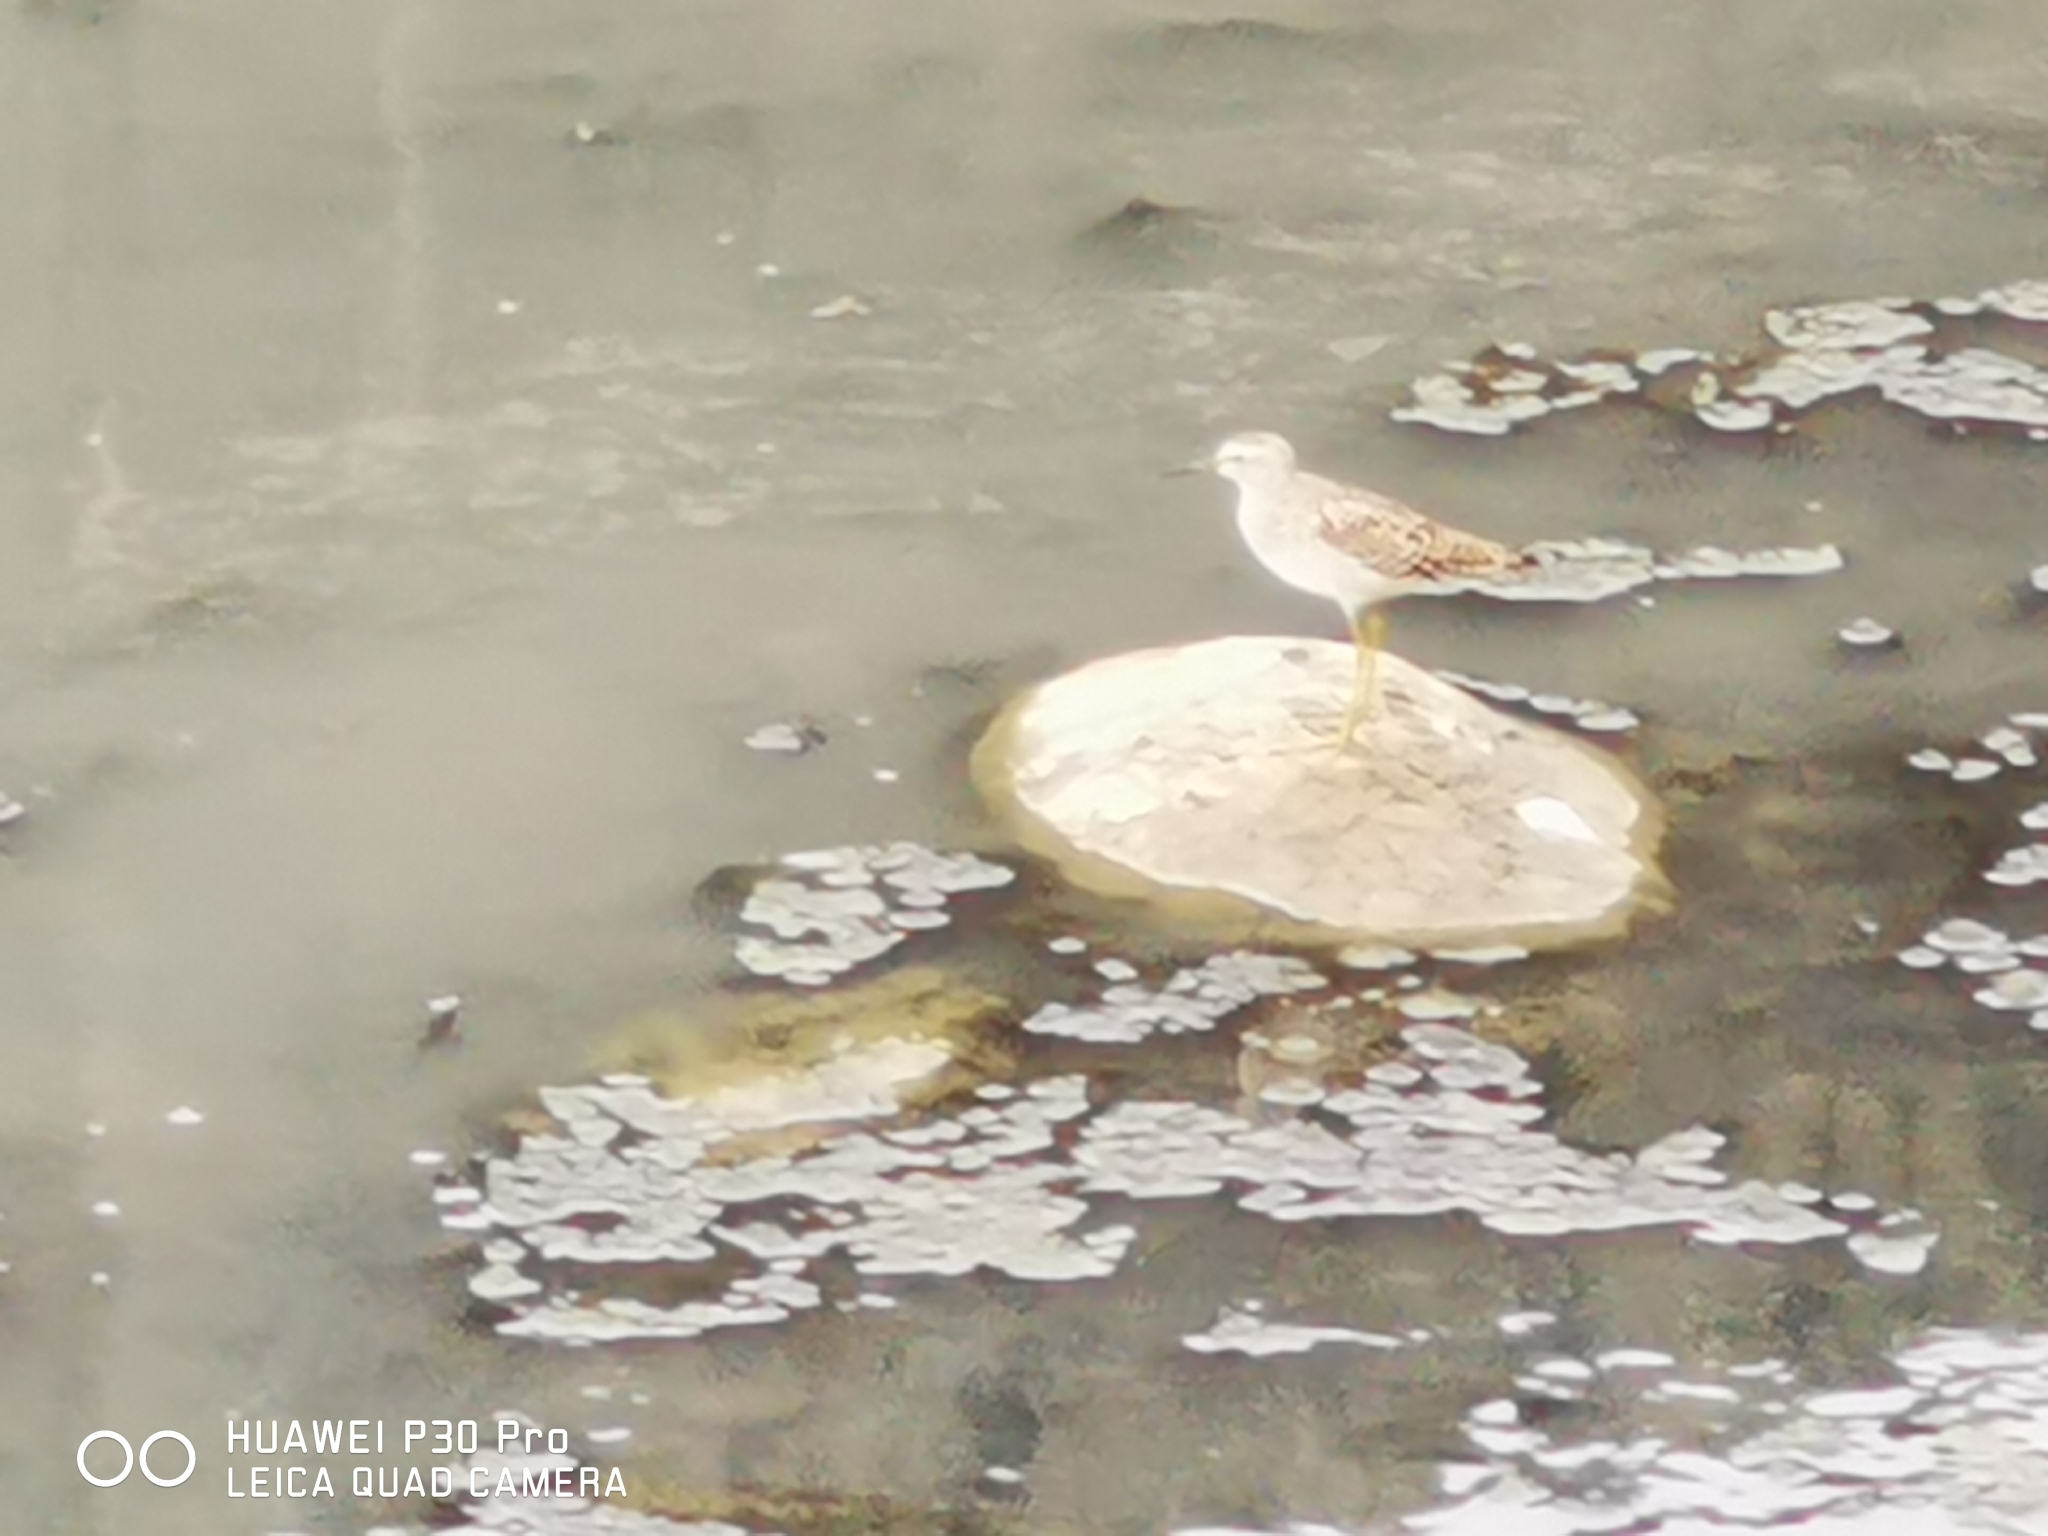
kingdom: Animalia
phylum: Chordata
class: Aves
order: Charadriiformes
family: Scolopacidae
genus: Tringa
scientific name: Tringa glareola
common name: Wood sandpiper
